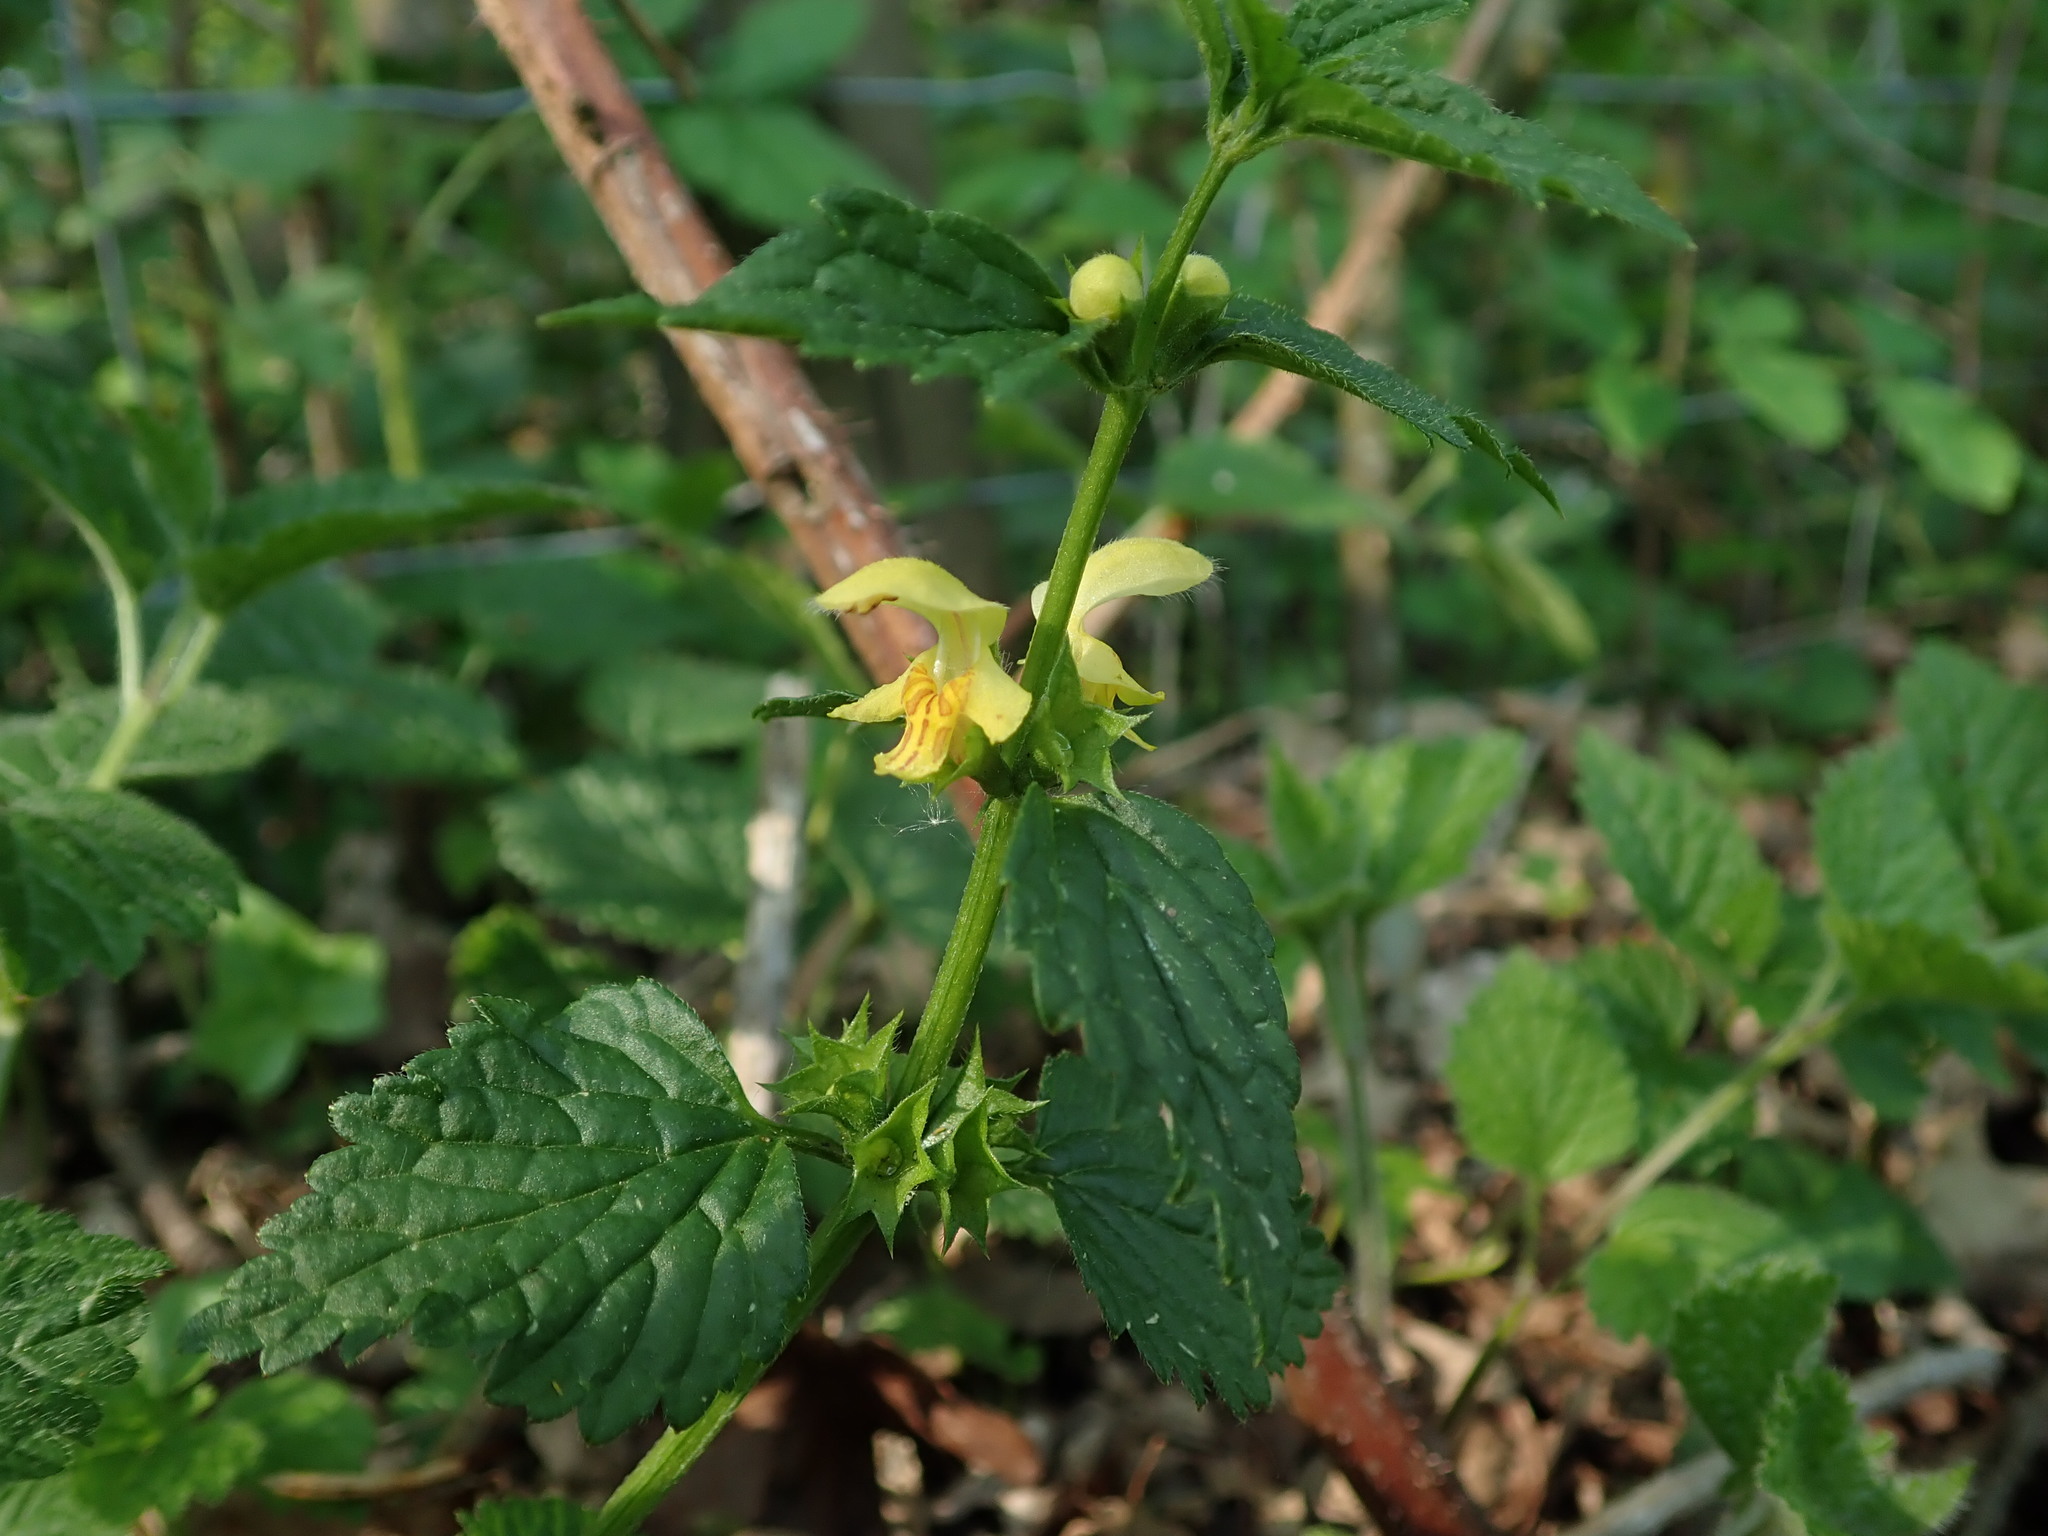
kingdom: Plantae
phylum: Tracheophyta
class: Magnoliopsida
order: Lamiales
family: Lamiaceae
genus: Lamium
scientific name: Lamium galeobdolon
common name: Yellow archangel
